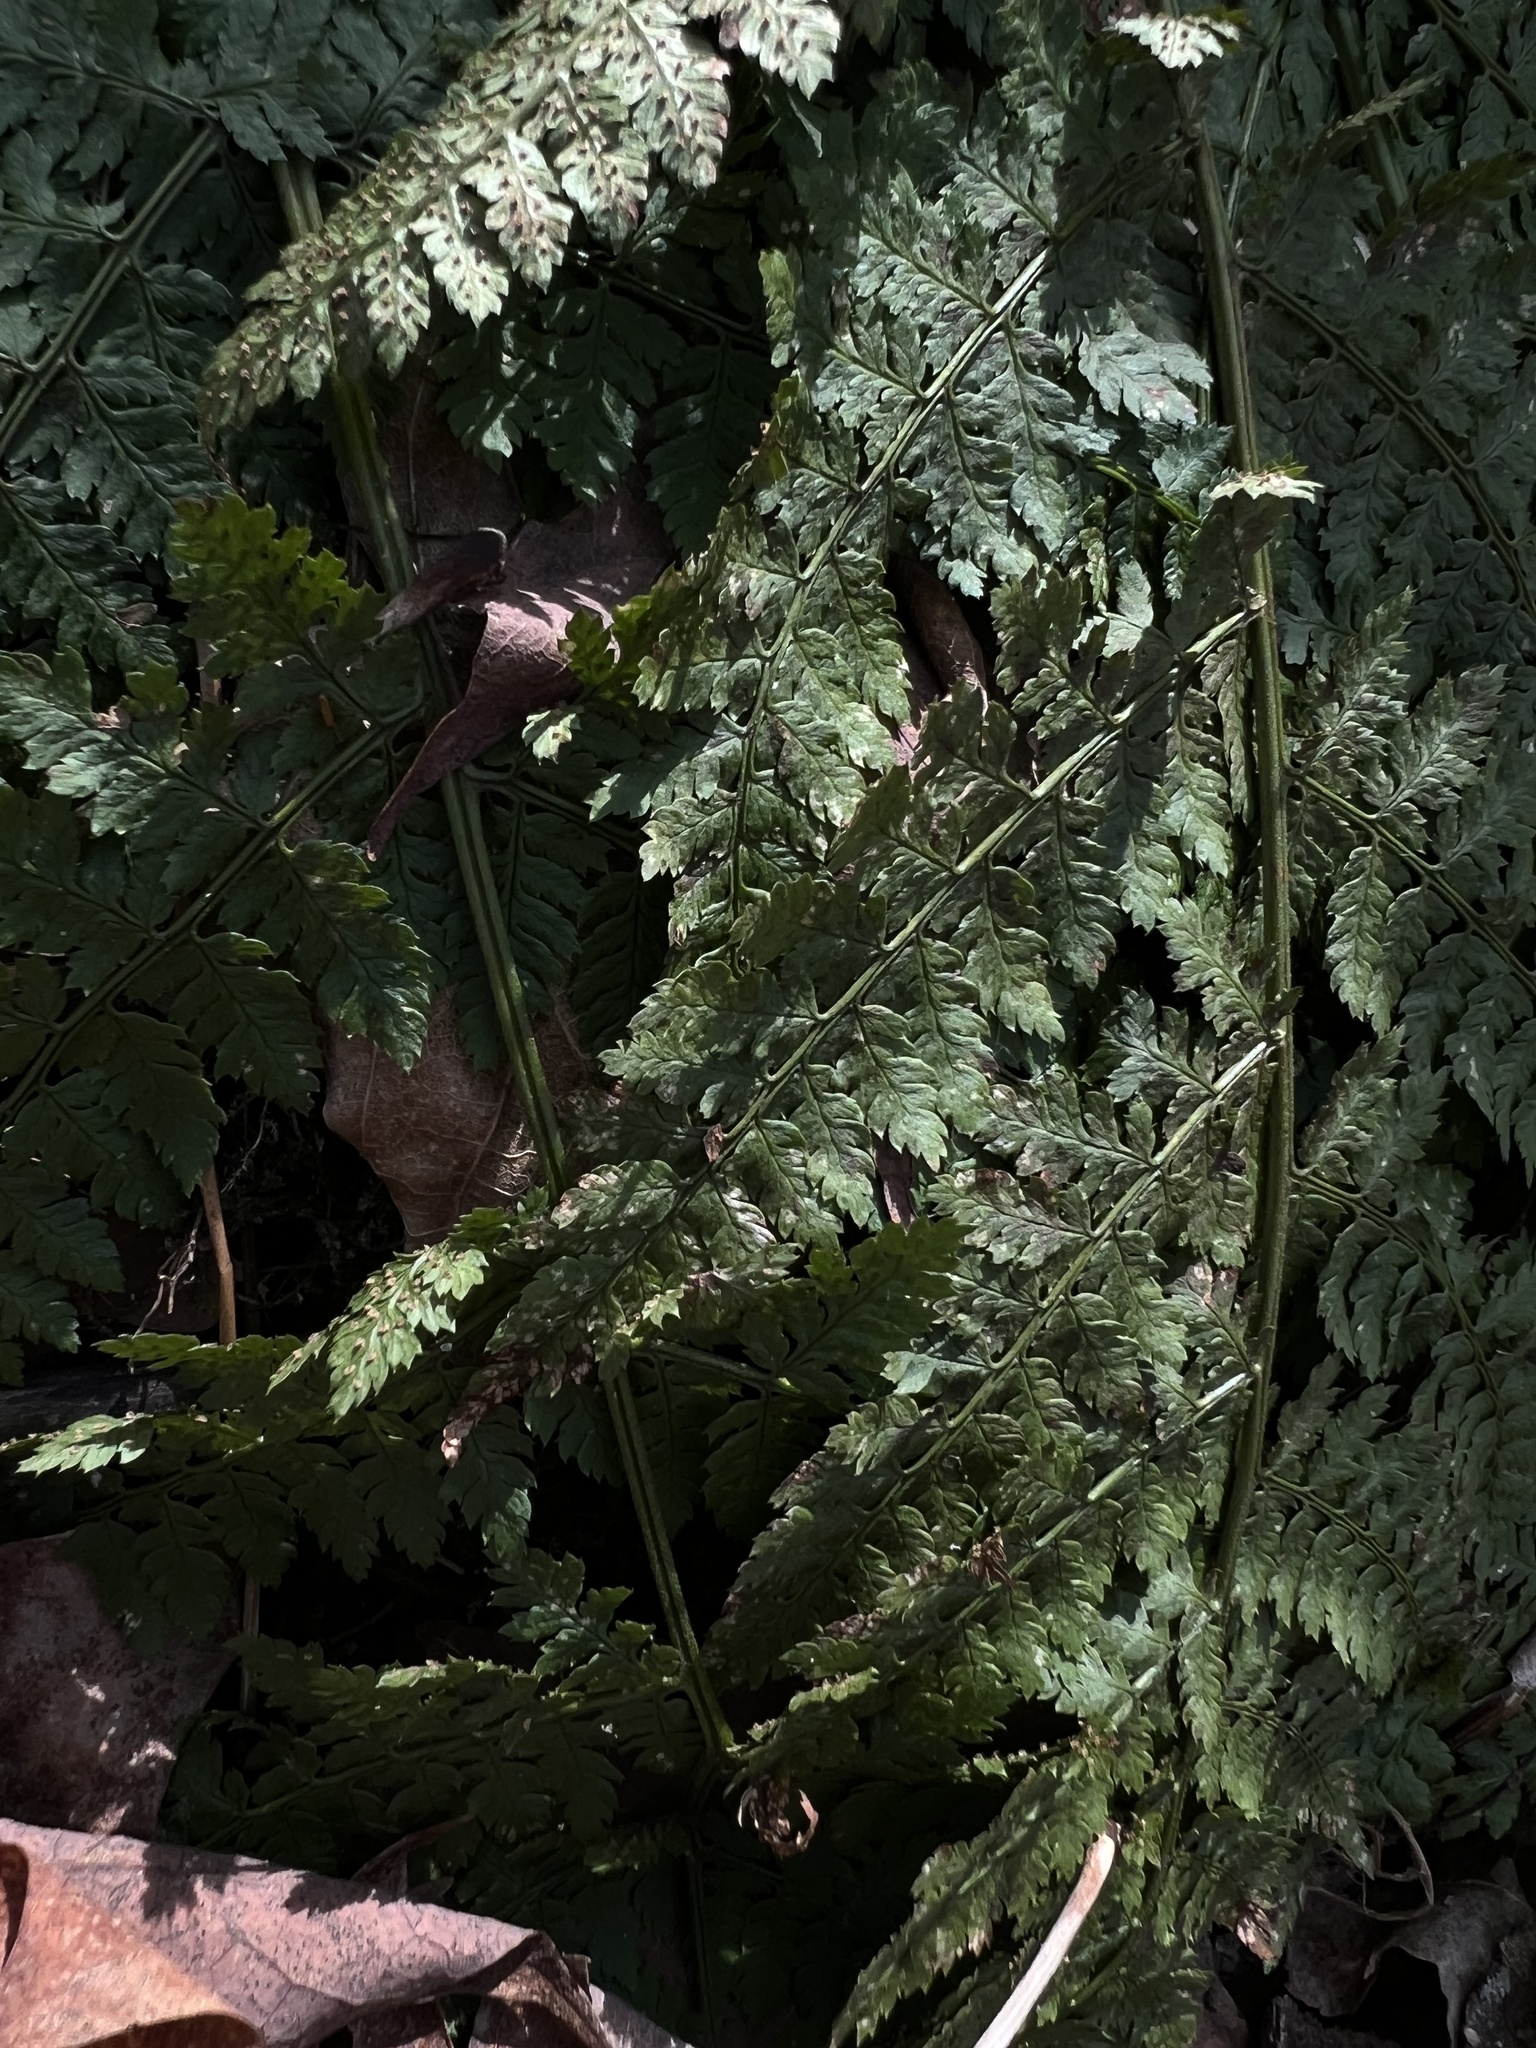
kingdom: Plantae
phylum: Tracheophyta
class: Polypodiopsida
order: Polypodiales
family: Dryopteridaceae
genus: Dryopteris
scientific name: Dryopteris intermedia
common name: Evergreen wood fern
